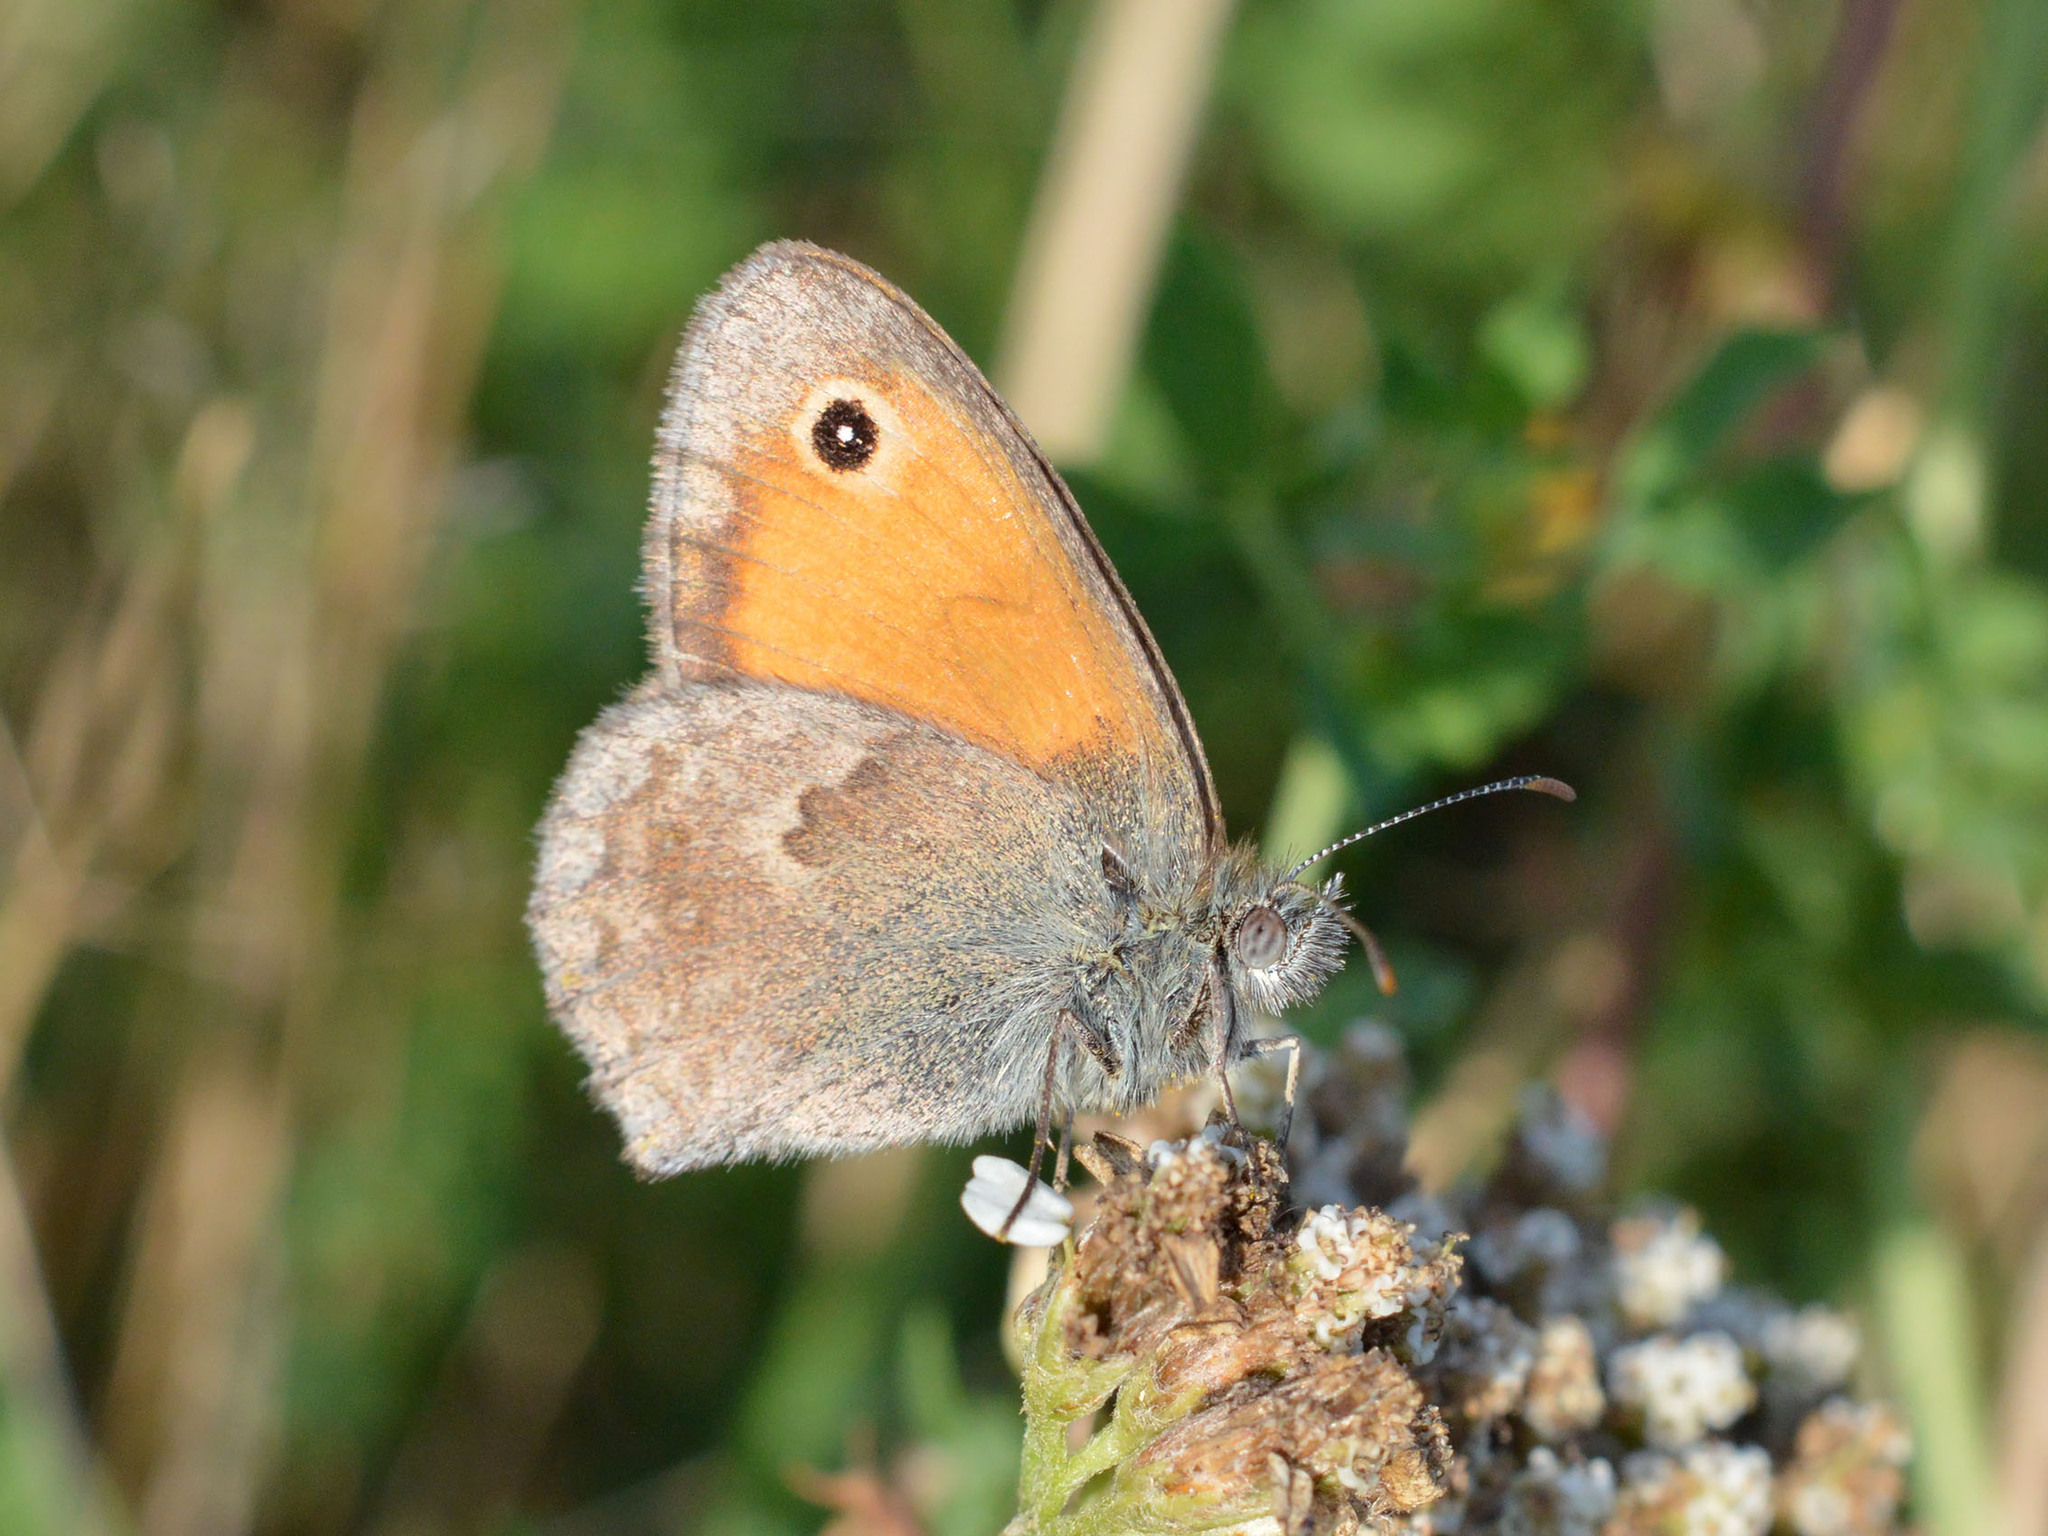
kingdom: Animalia
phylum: Arthropoda
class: Insecta
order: Lepidoptera
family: Nymphalidae
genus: Coenonympha
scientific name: Coenonympha pamphilus
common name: Small heath
